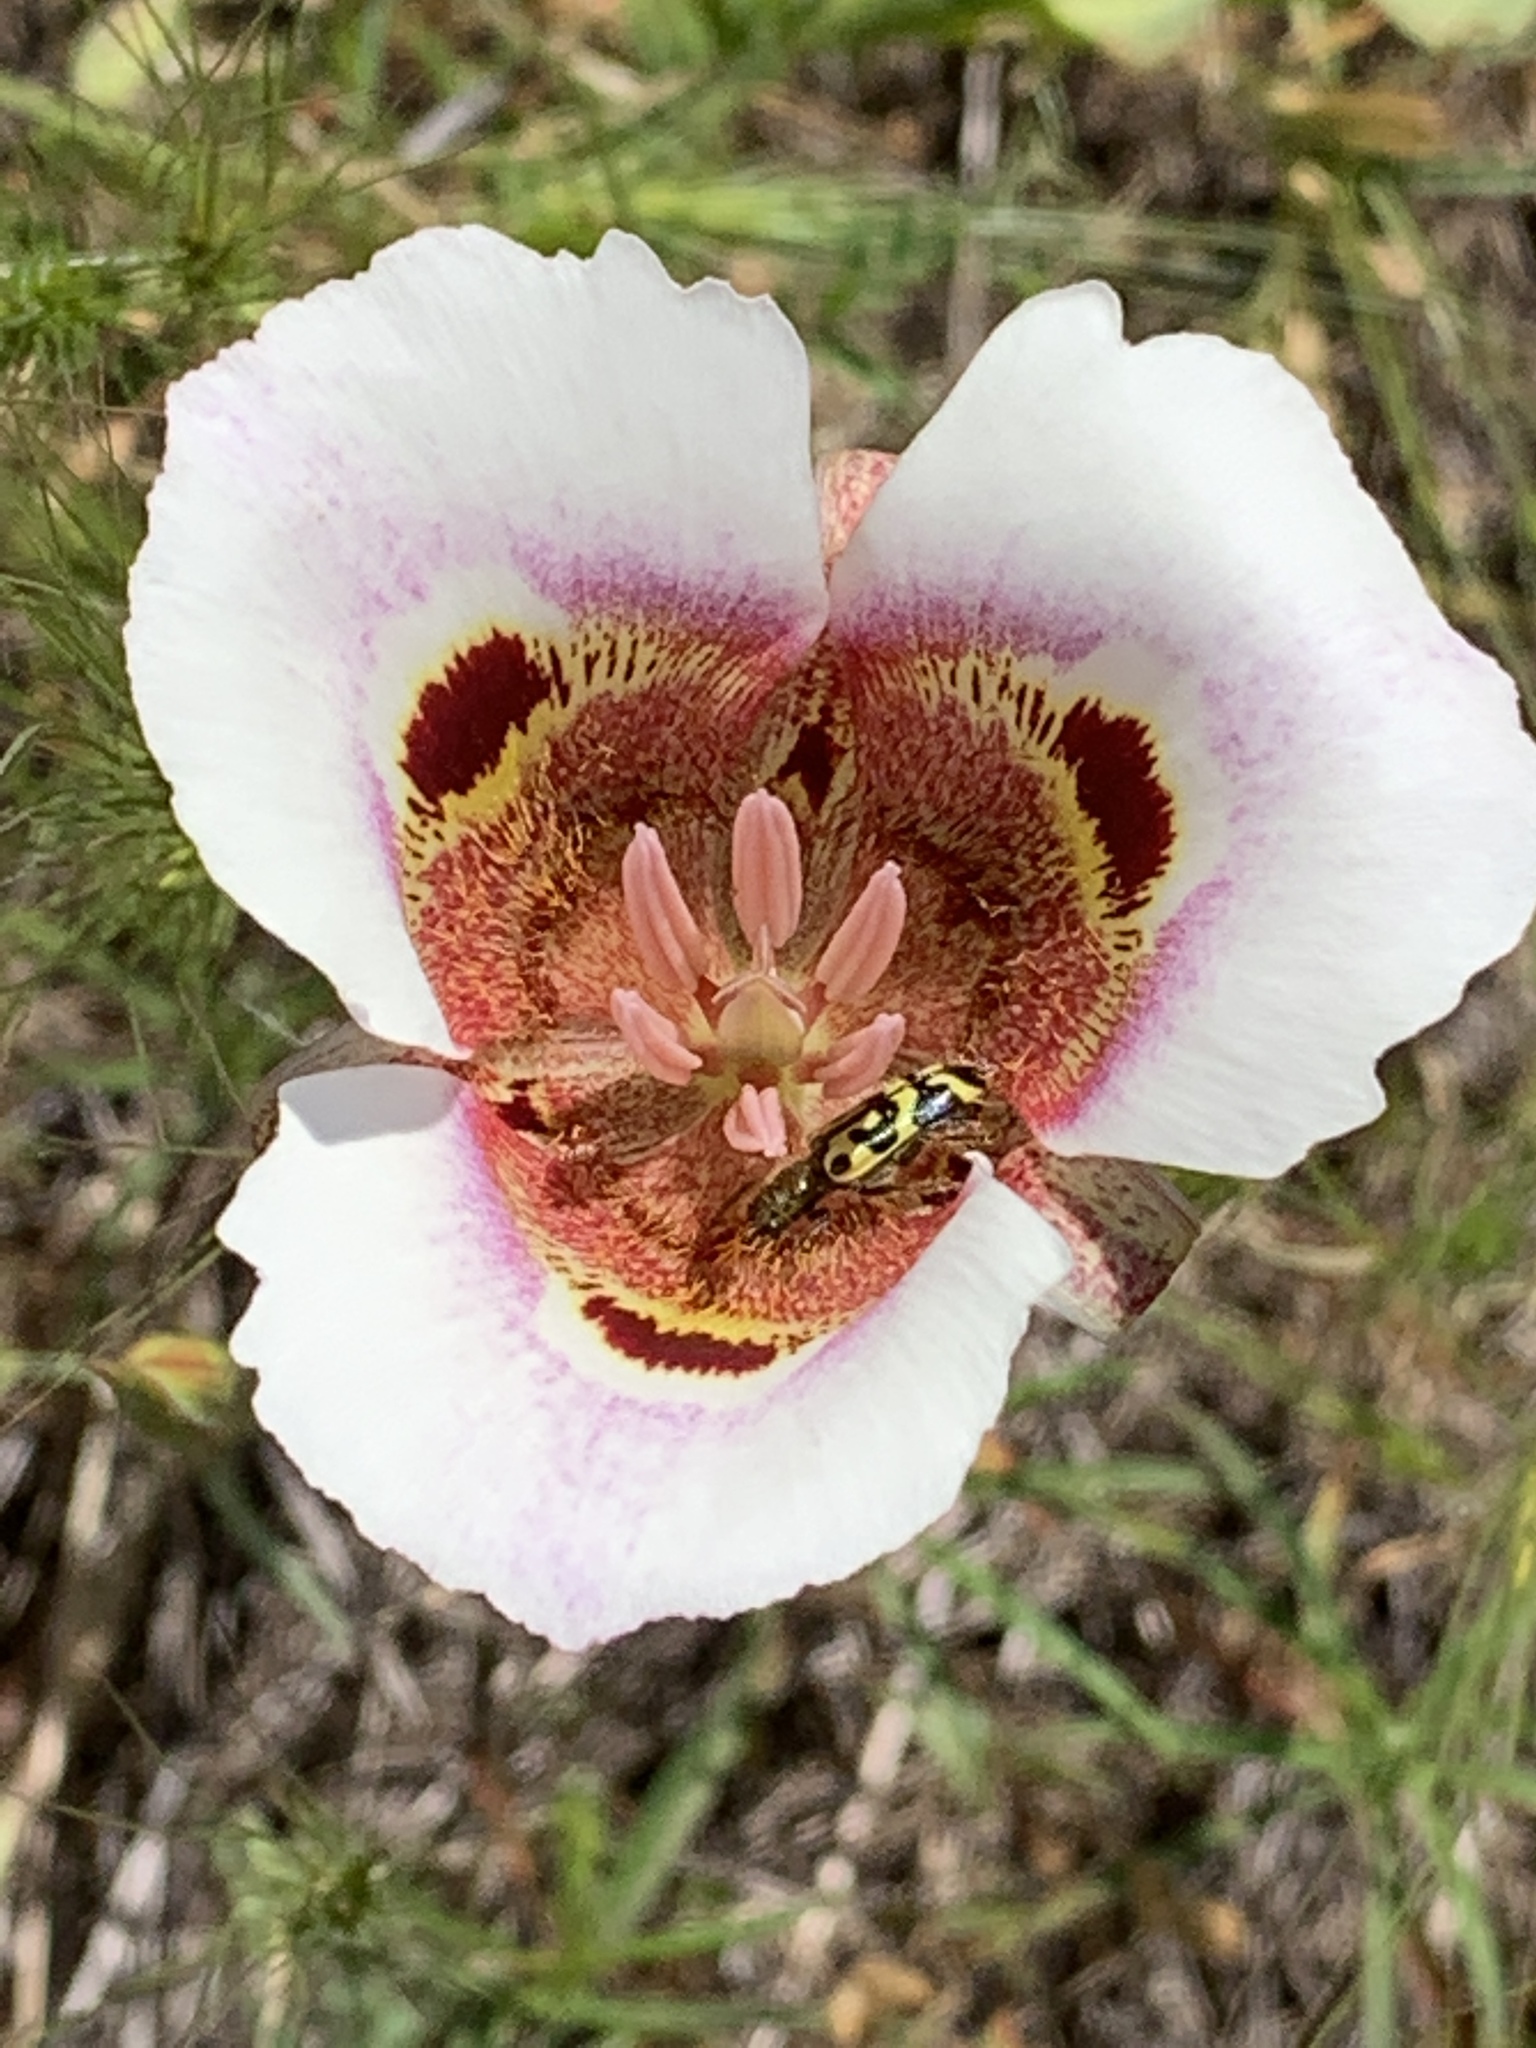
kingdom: Plantae
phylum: Tracheophyta
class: Liliopsida
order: Liliales
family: Liliaceae
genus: Calochortus
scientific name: Calochortus vestae
